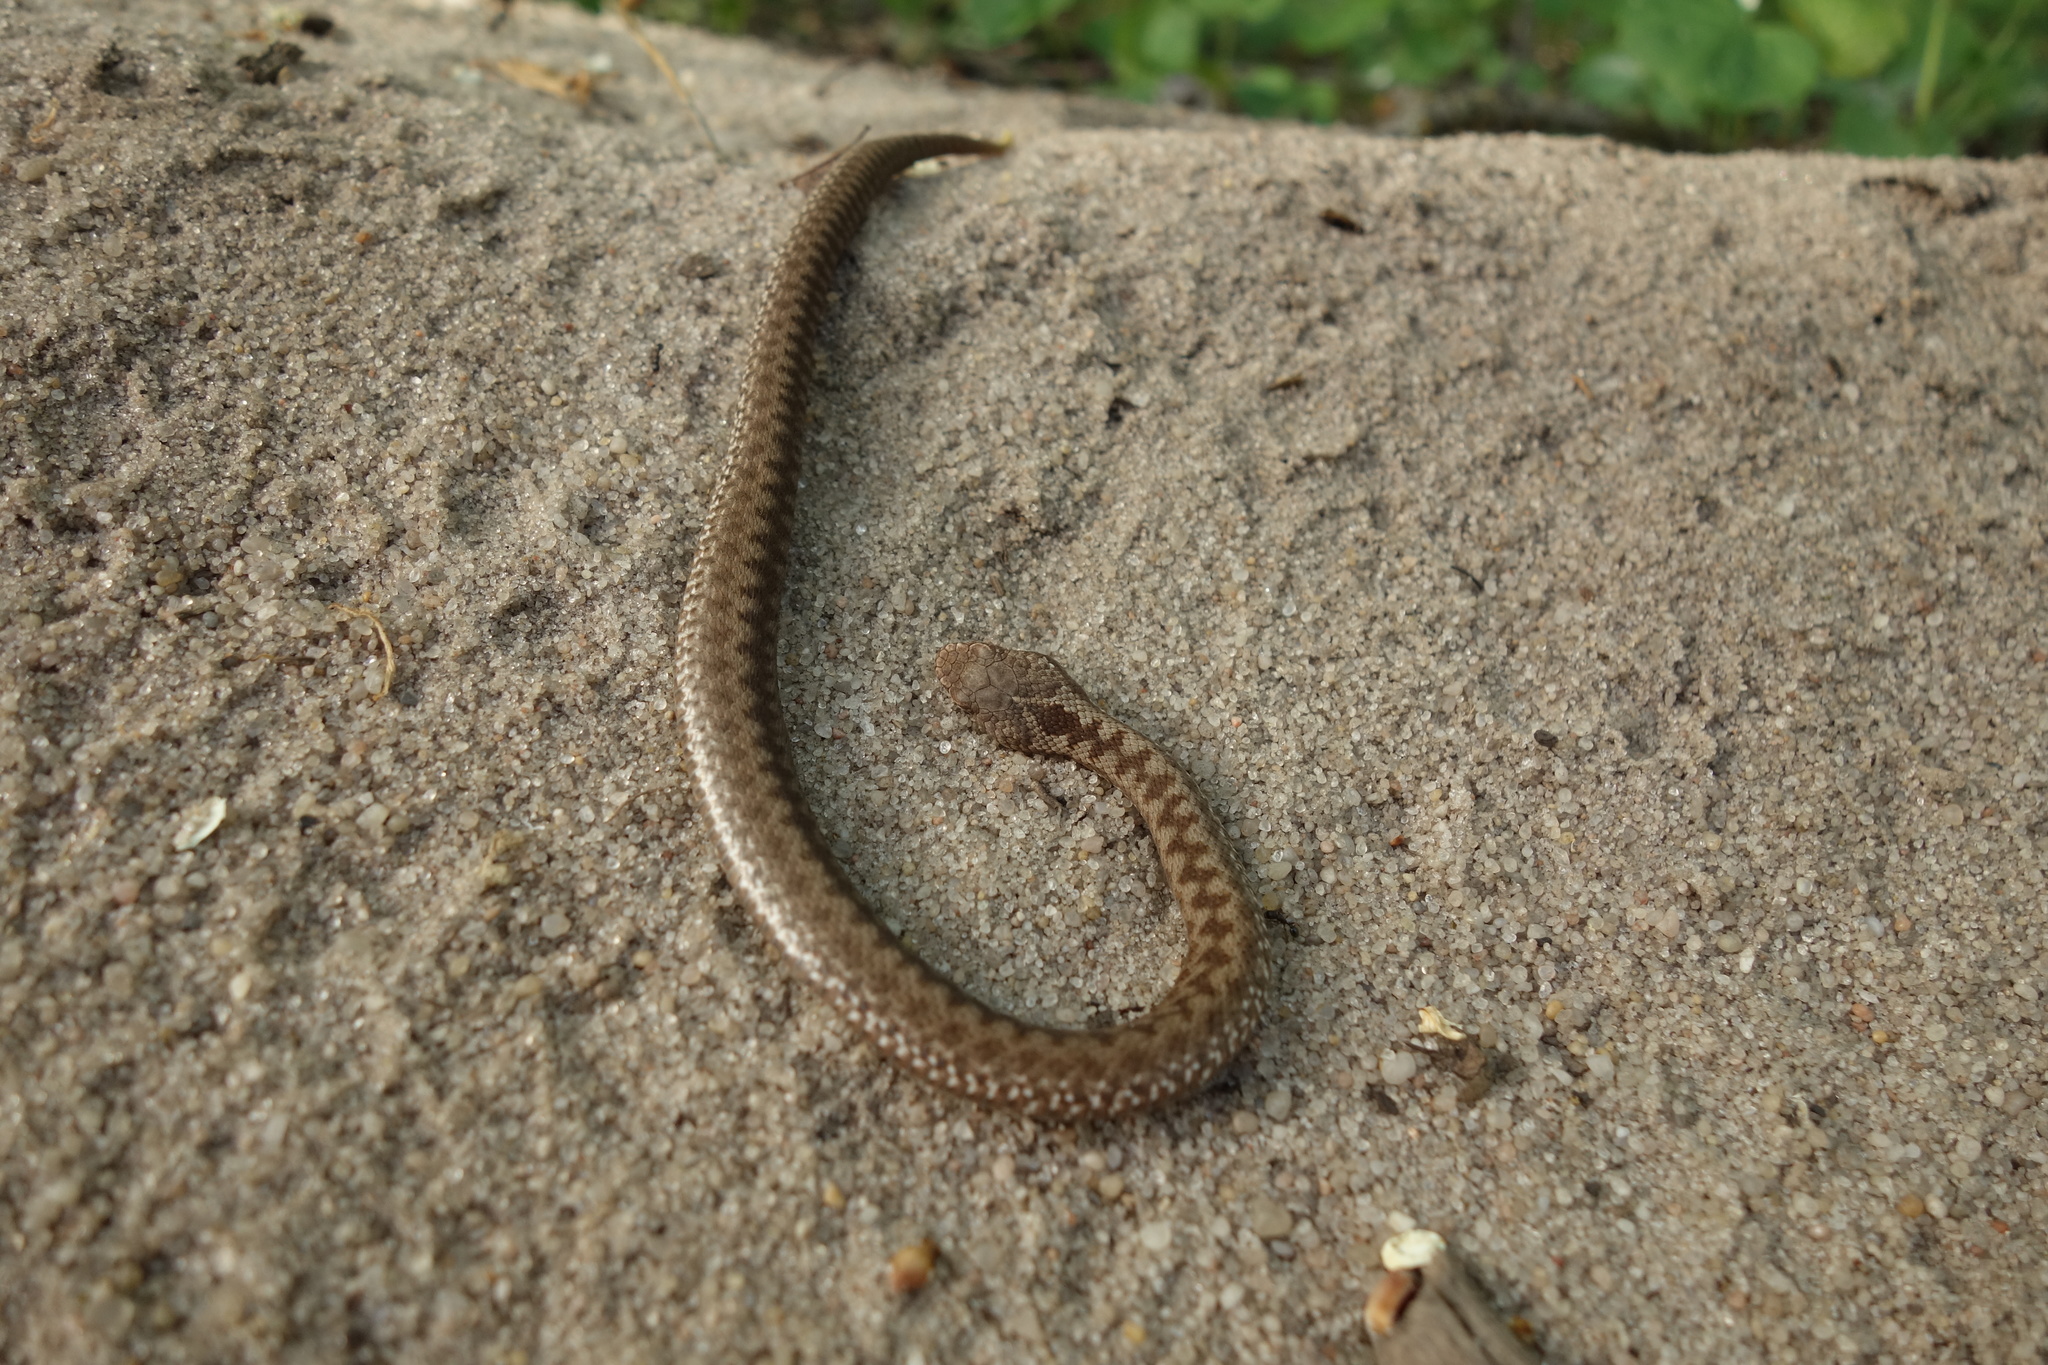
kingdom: Animalia
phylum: Chordata
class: Squamata
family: Viperidae
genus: Vipera
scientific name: Vipera berus
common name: Adder
